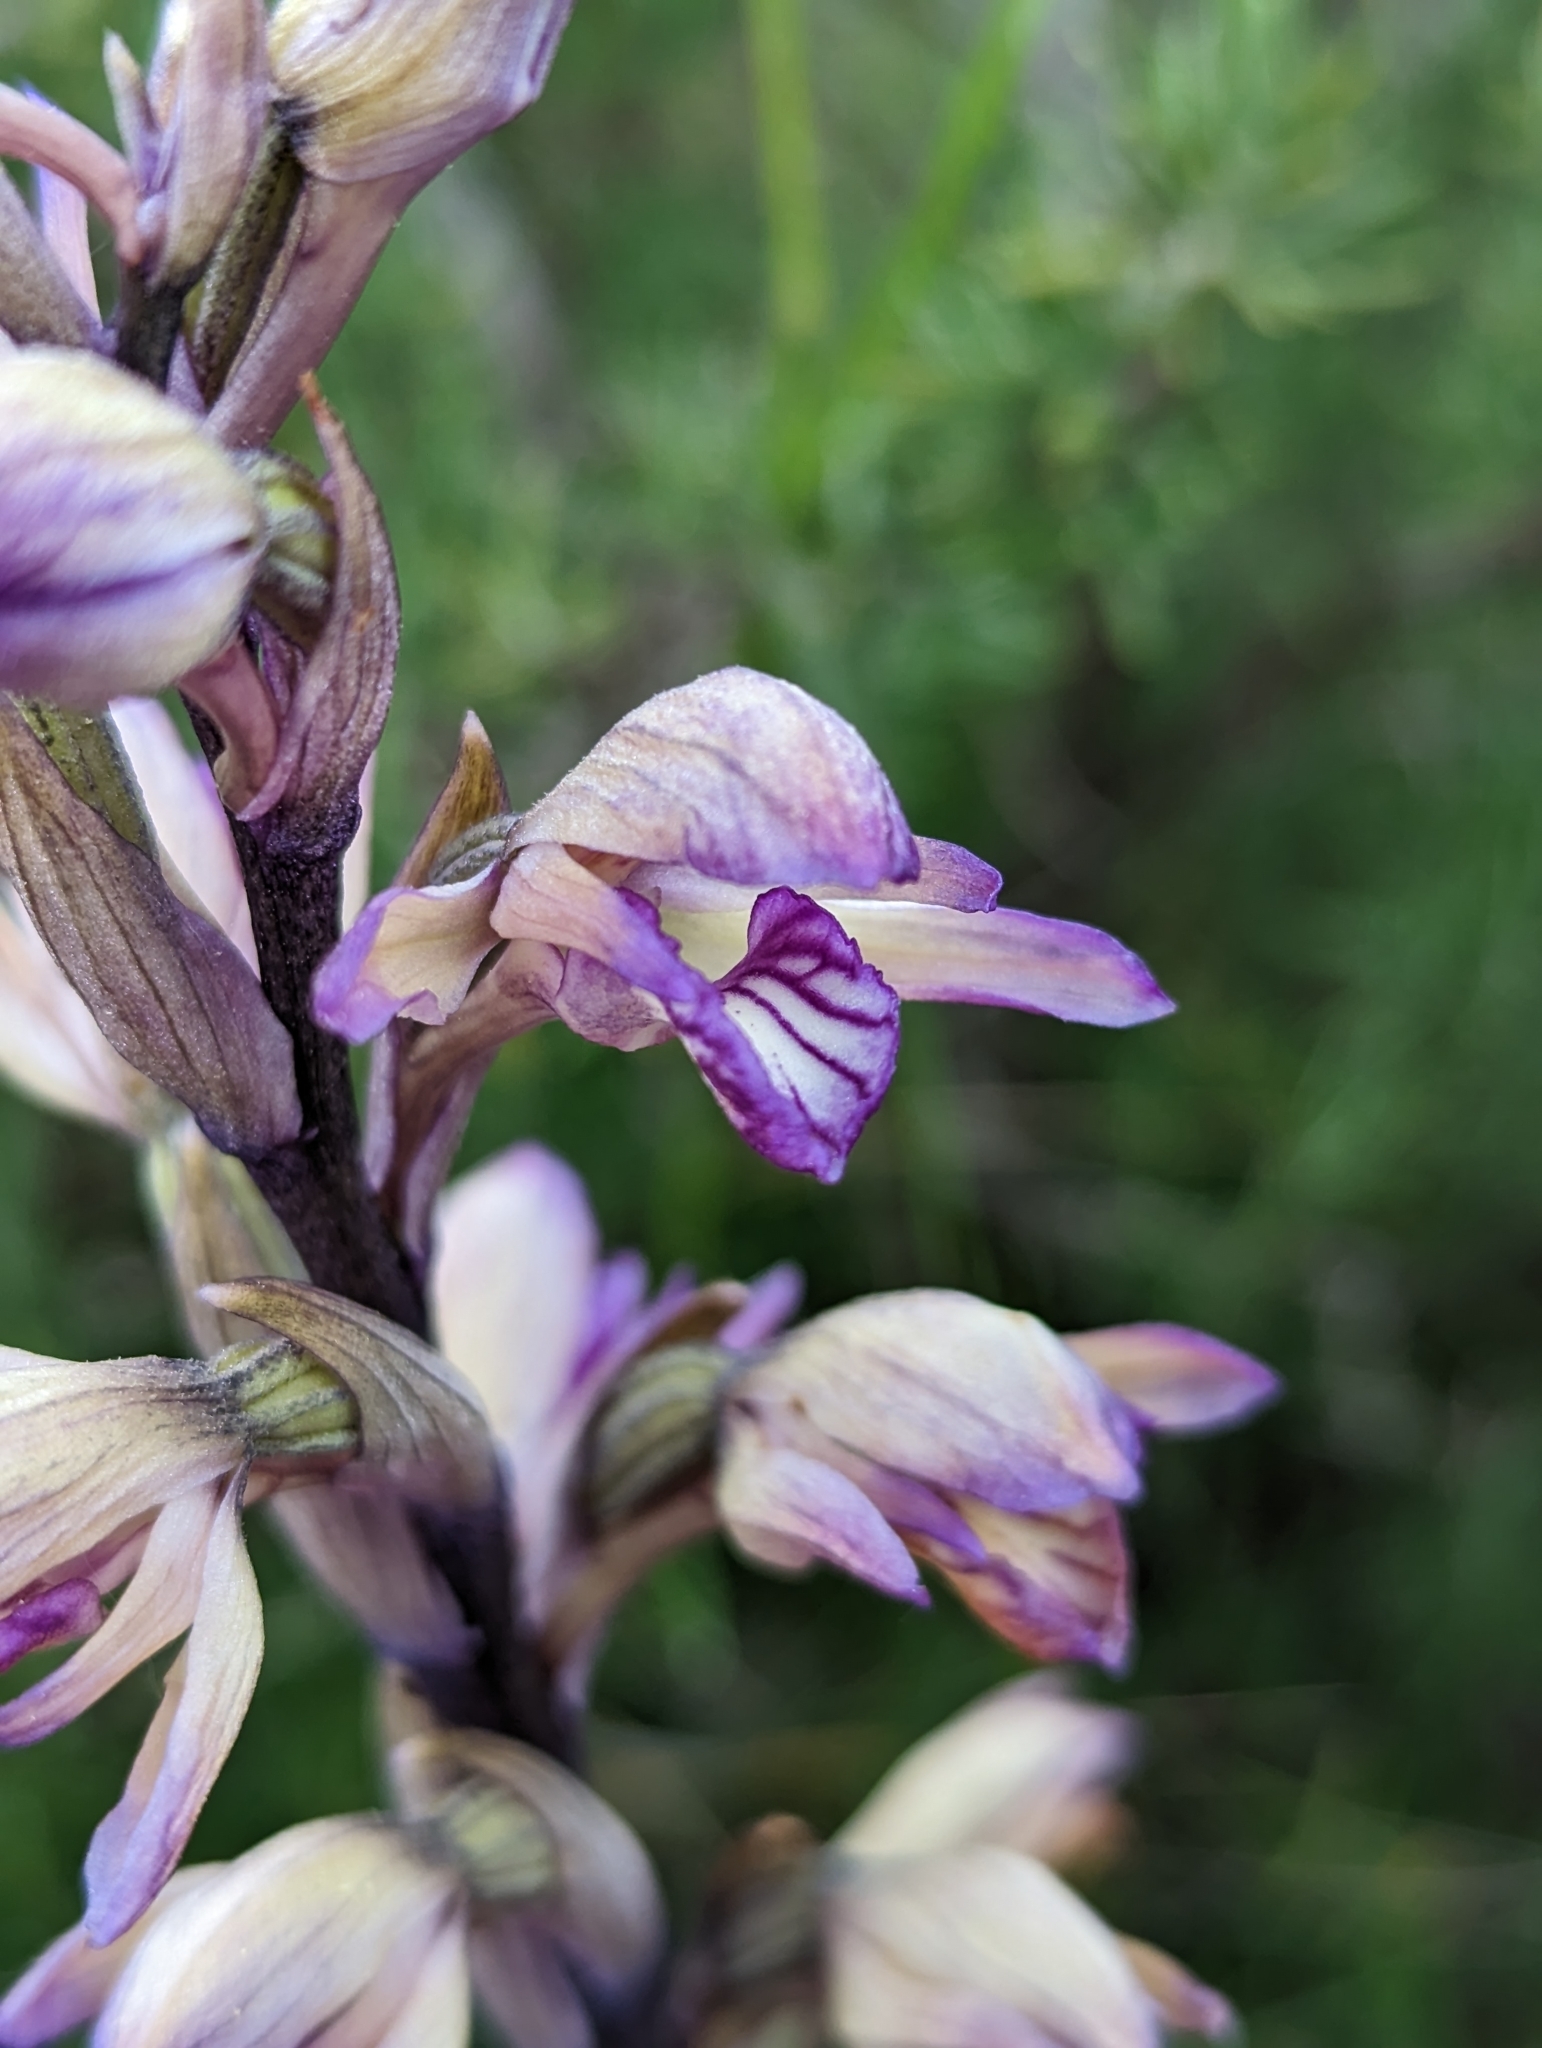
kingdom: Plantae
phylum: Tracheophyta
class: Liliopsida
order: Asparagales
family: Orchidaceae
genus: Limodorum
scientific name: Limodorum abortivum
